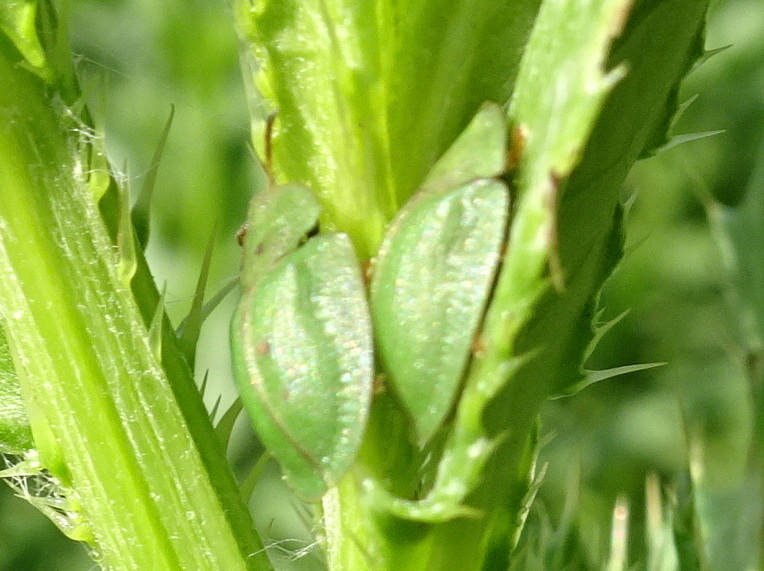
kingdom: Animalia
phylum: Arthropoda
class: Insecta
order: Coleoptera
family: Chrysomelidae
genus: Cassida
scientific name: Cassida rubiginosa
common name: Thistle tortoise beetle
